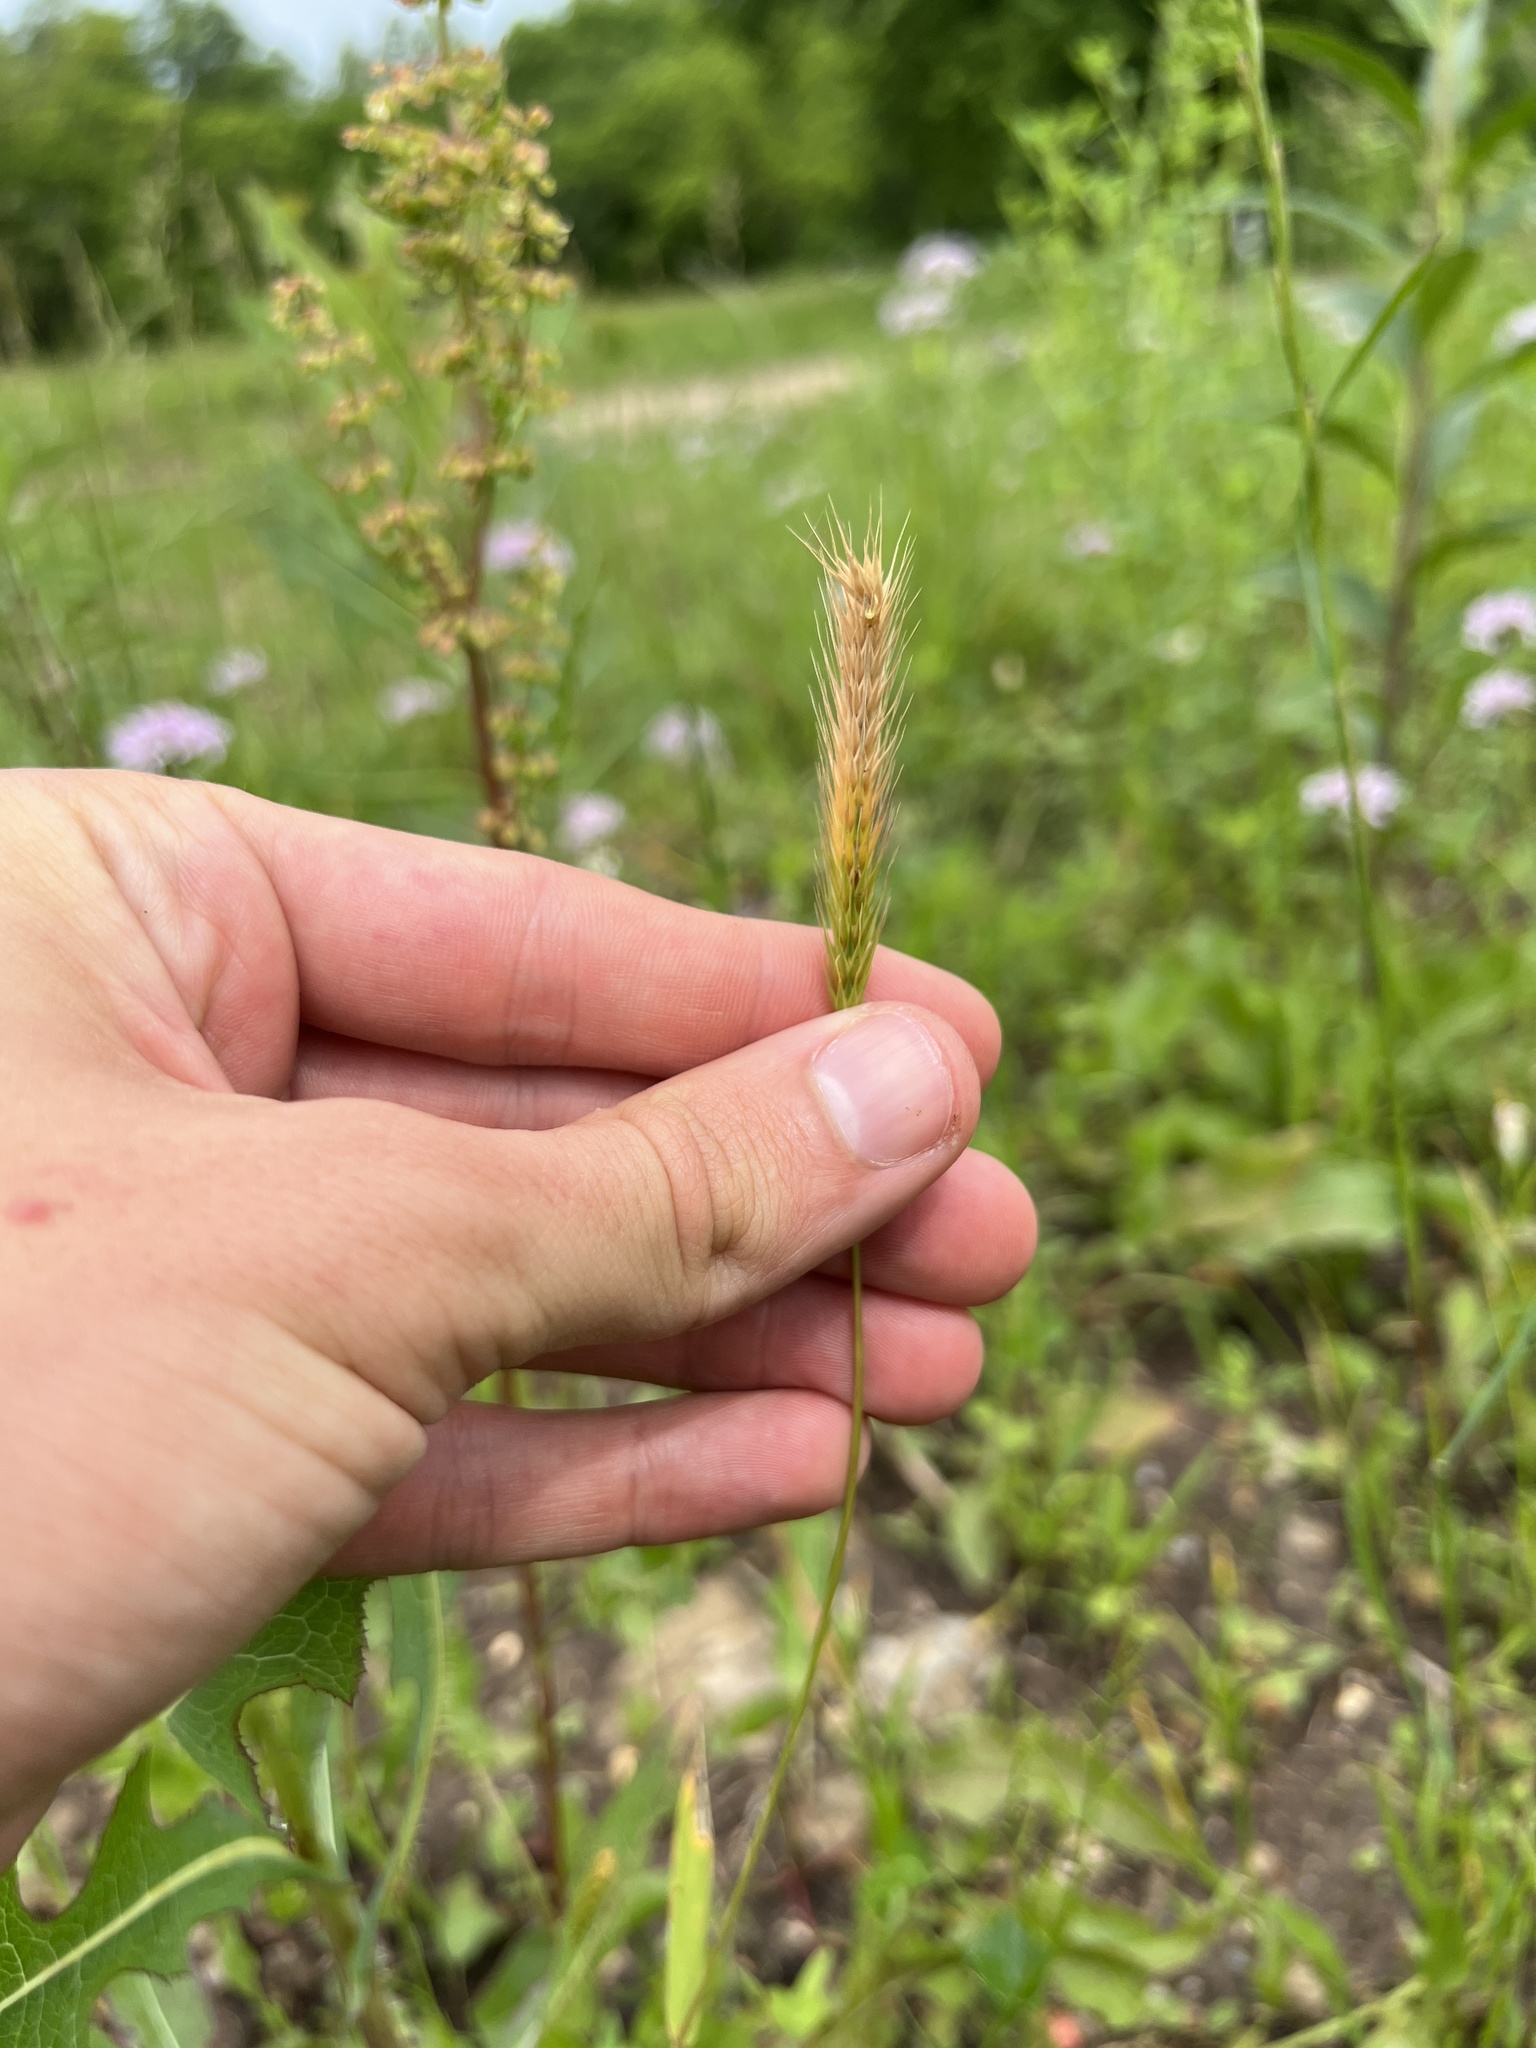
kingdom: Plantae
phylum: Tracheophyta
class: Liliopsida
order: Poales
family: Poaceae
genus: Hordeum
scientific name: Hordeum pusillum
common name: Little barley
